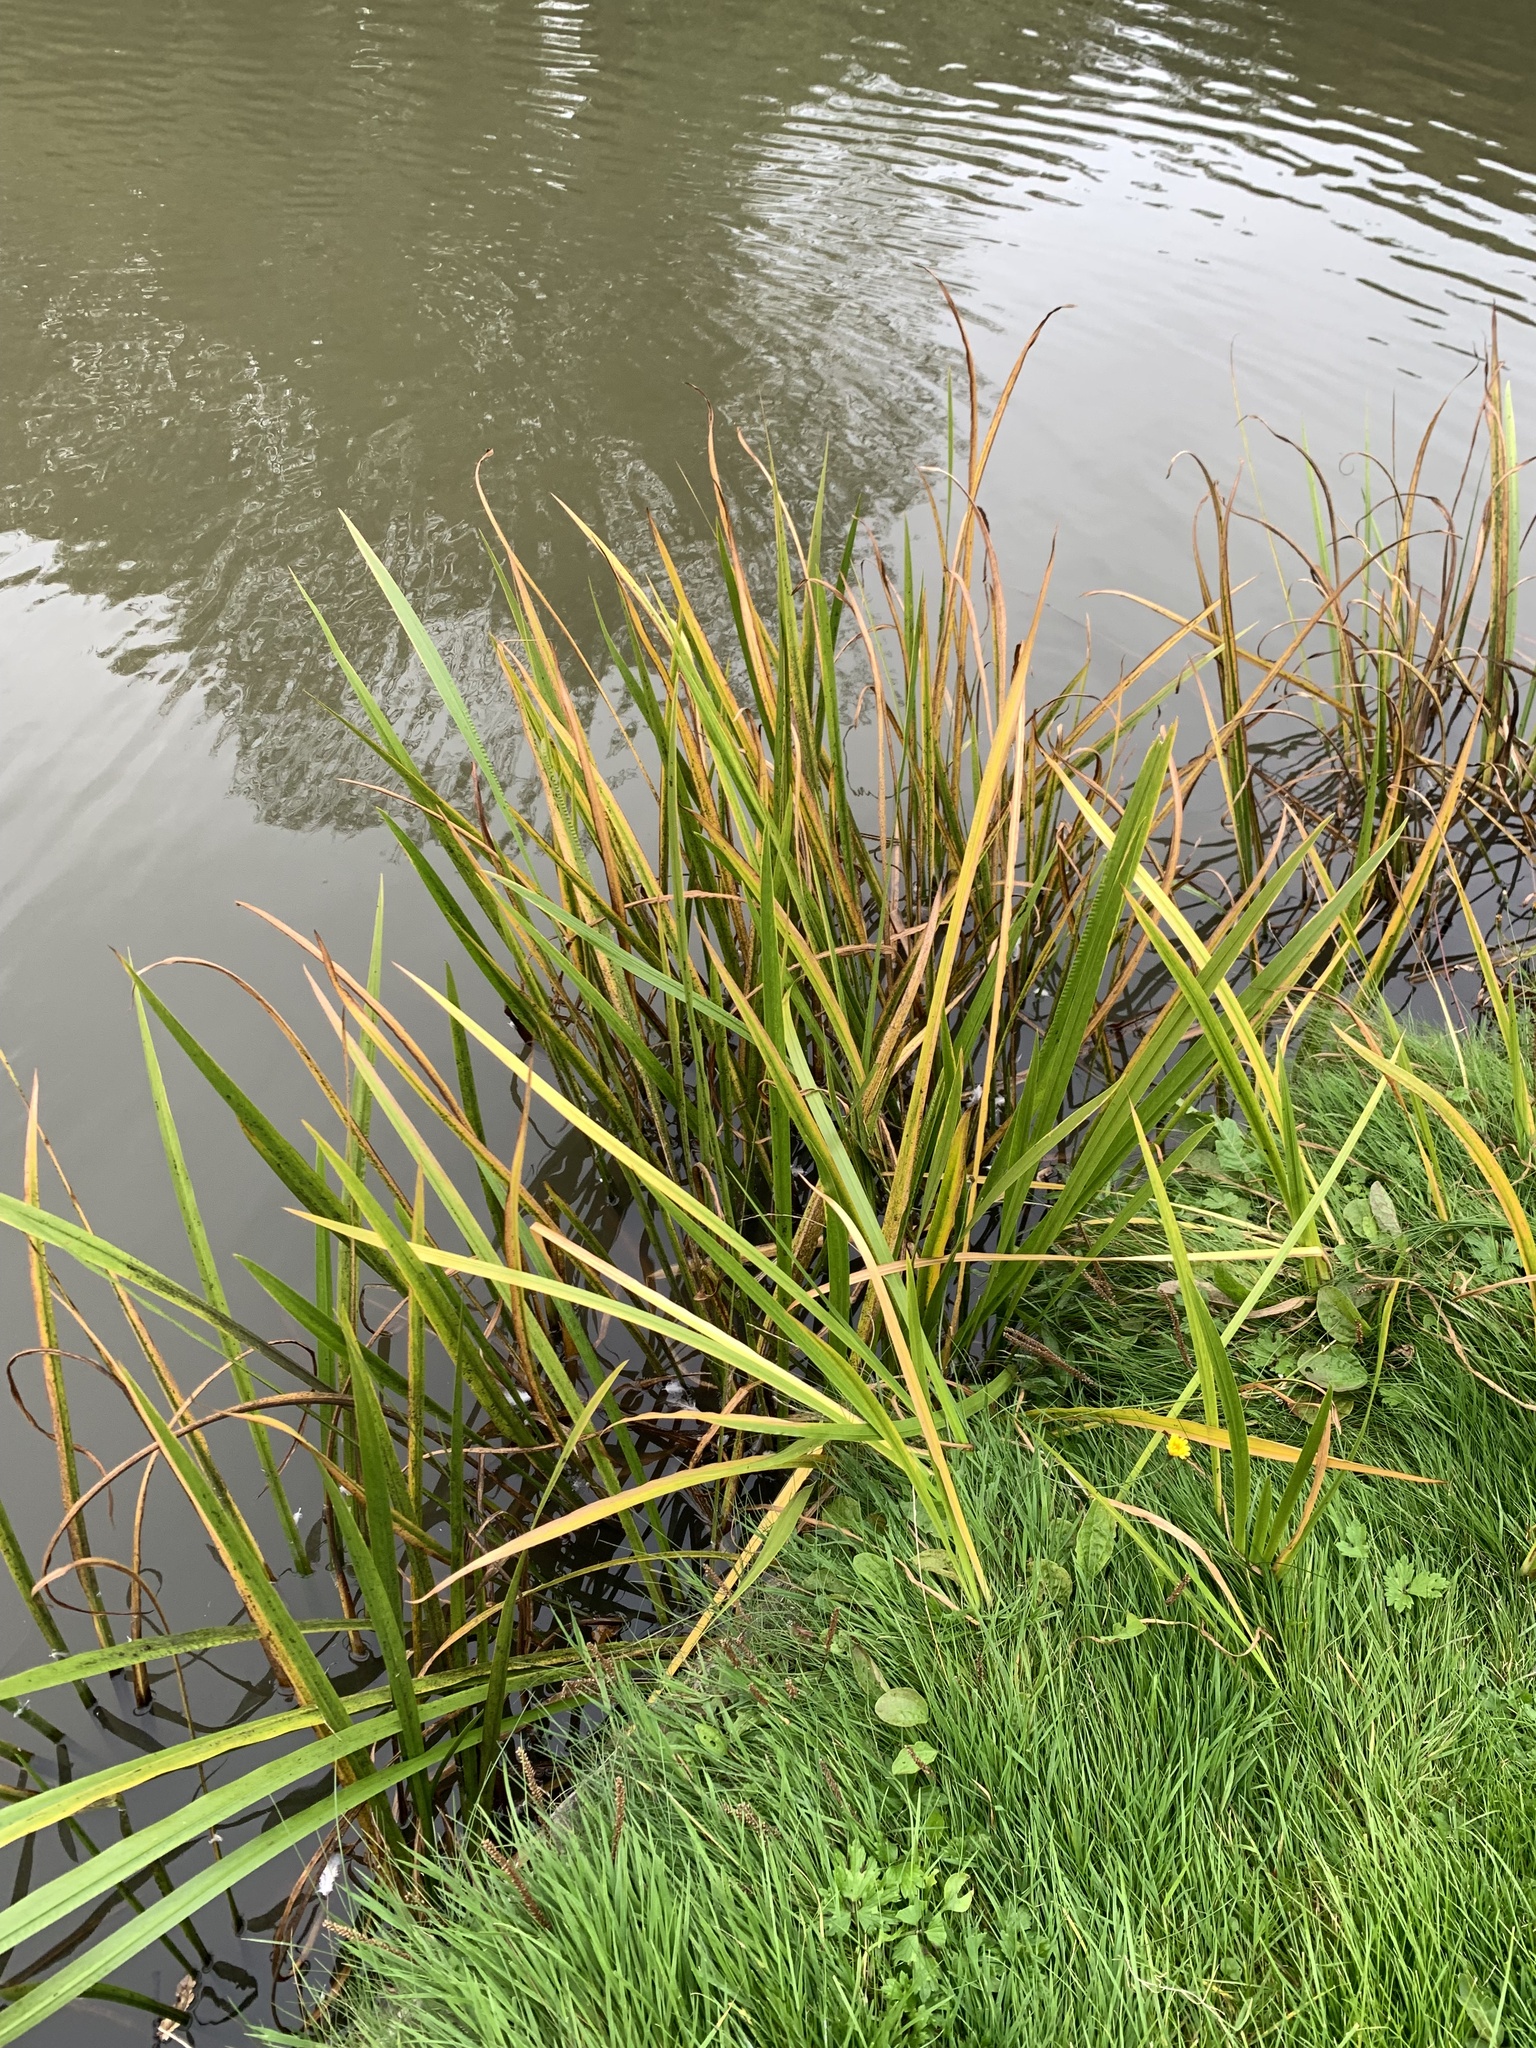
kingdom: Plantae
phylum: Tracheophyta
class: Liliopsida
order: Acorales
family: Acoraceae
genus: Acorus
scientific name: Acorus calamus
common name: Sweet-flag
